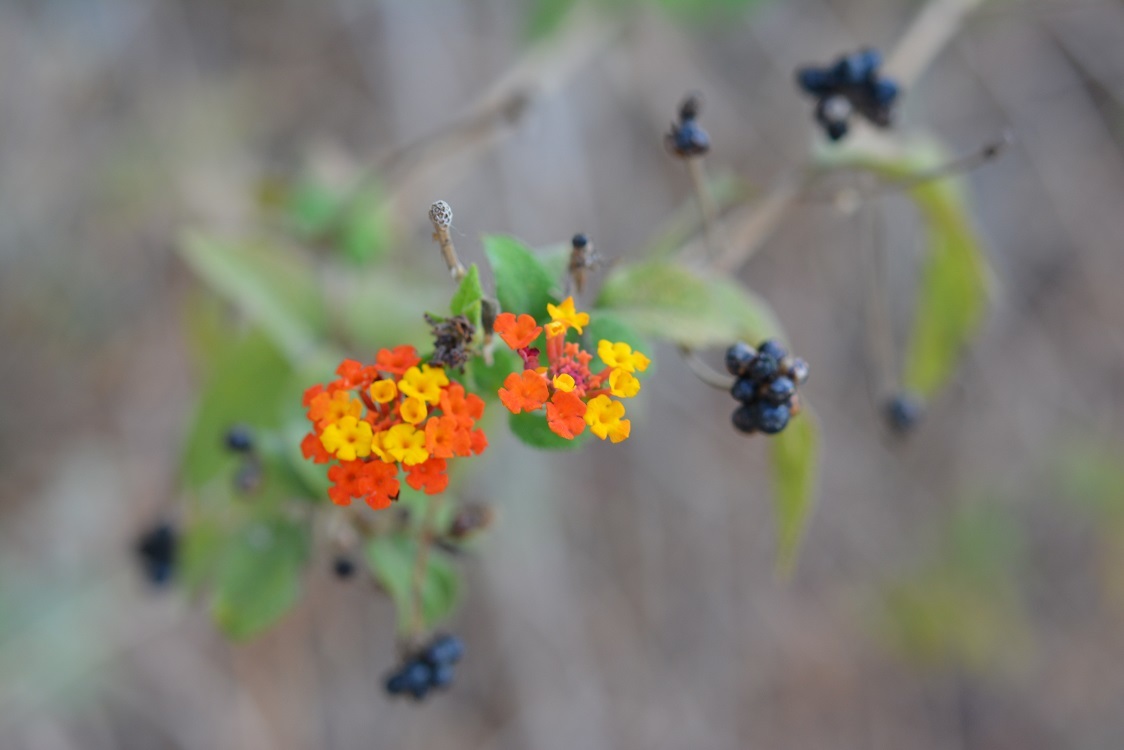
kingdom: Plantae
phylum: Tracheophyta
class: Magnoliopsida
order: Lamiales
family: Verbenaceae
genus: Lantana
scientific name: Lantana camara
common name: Lantana
